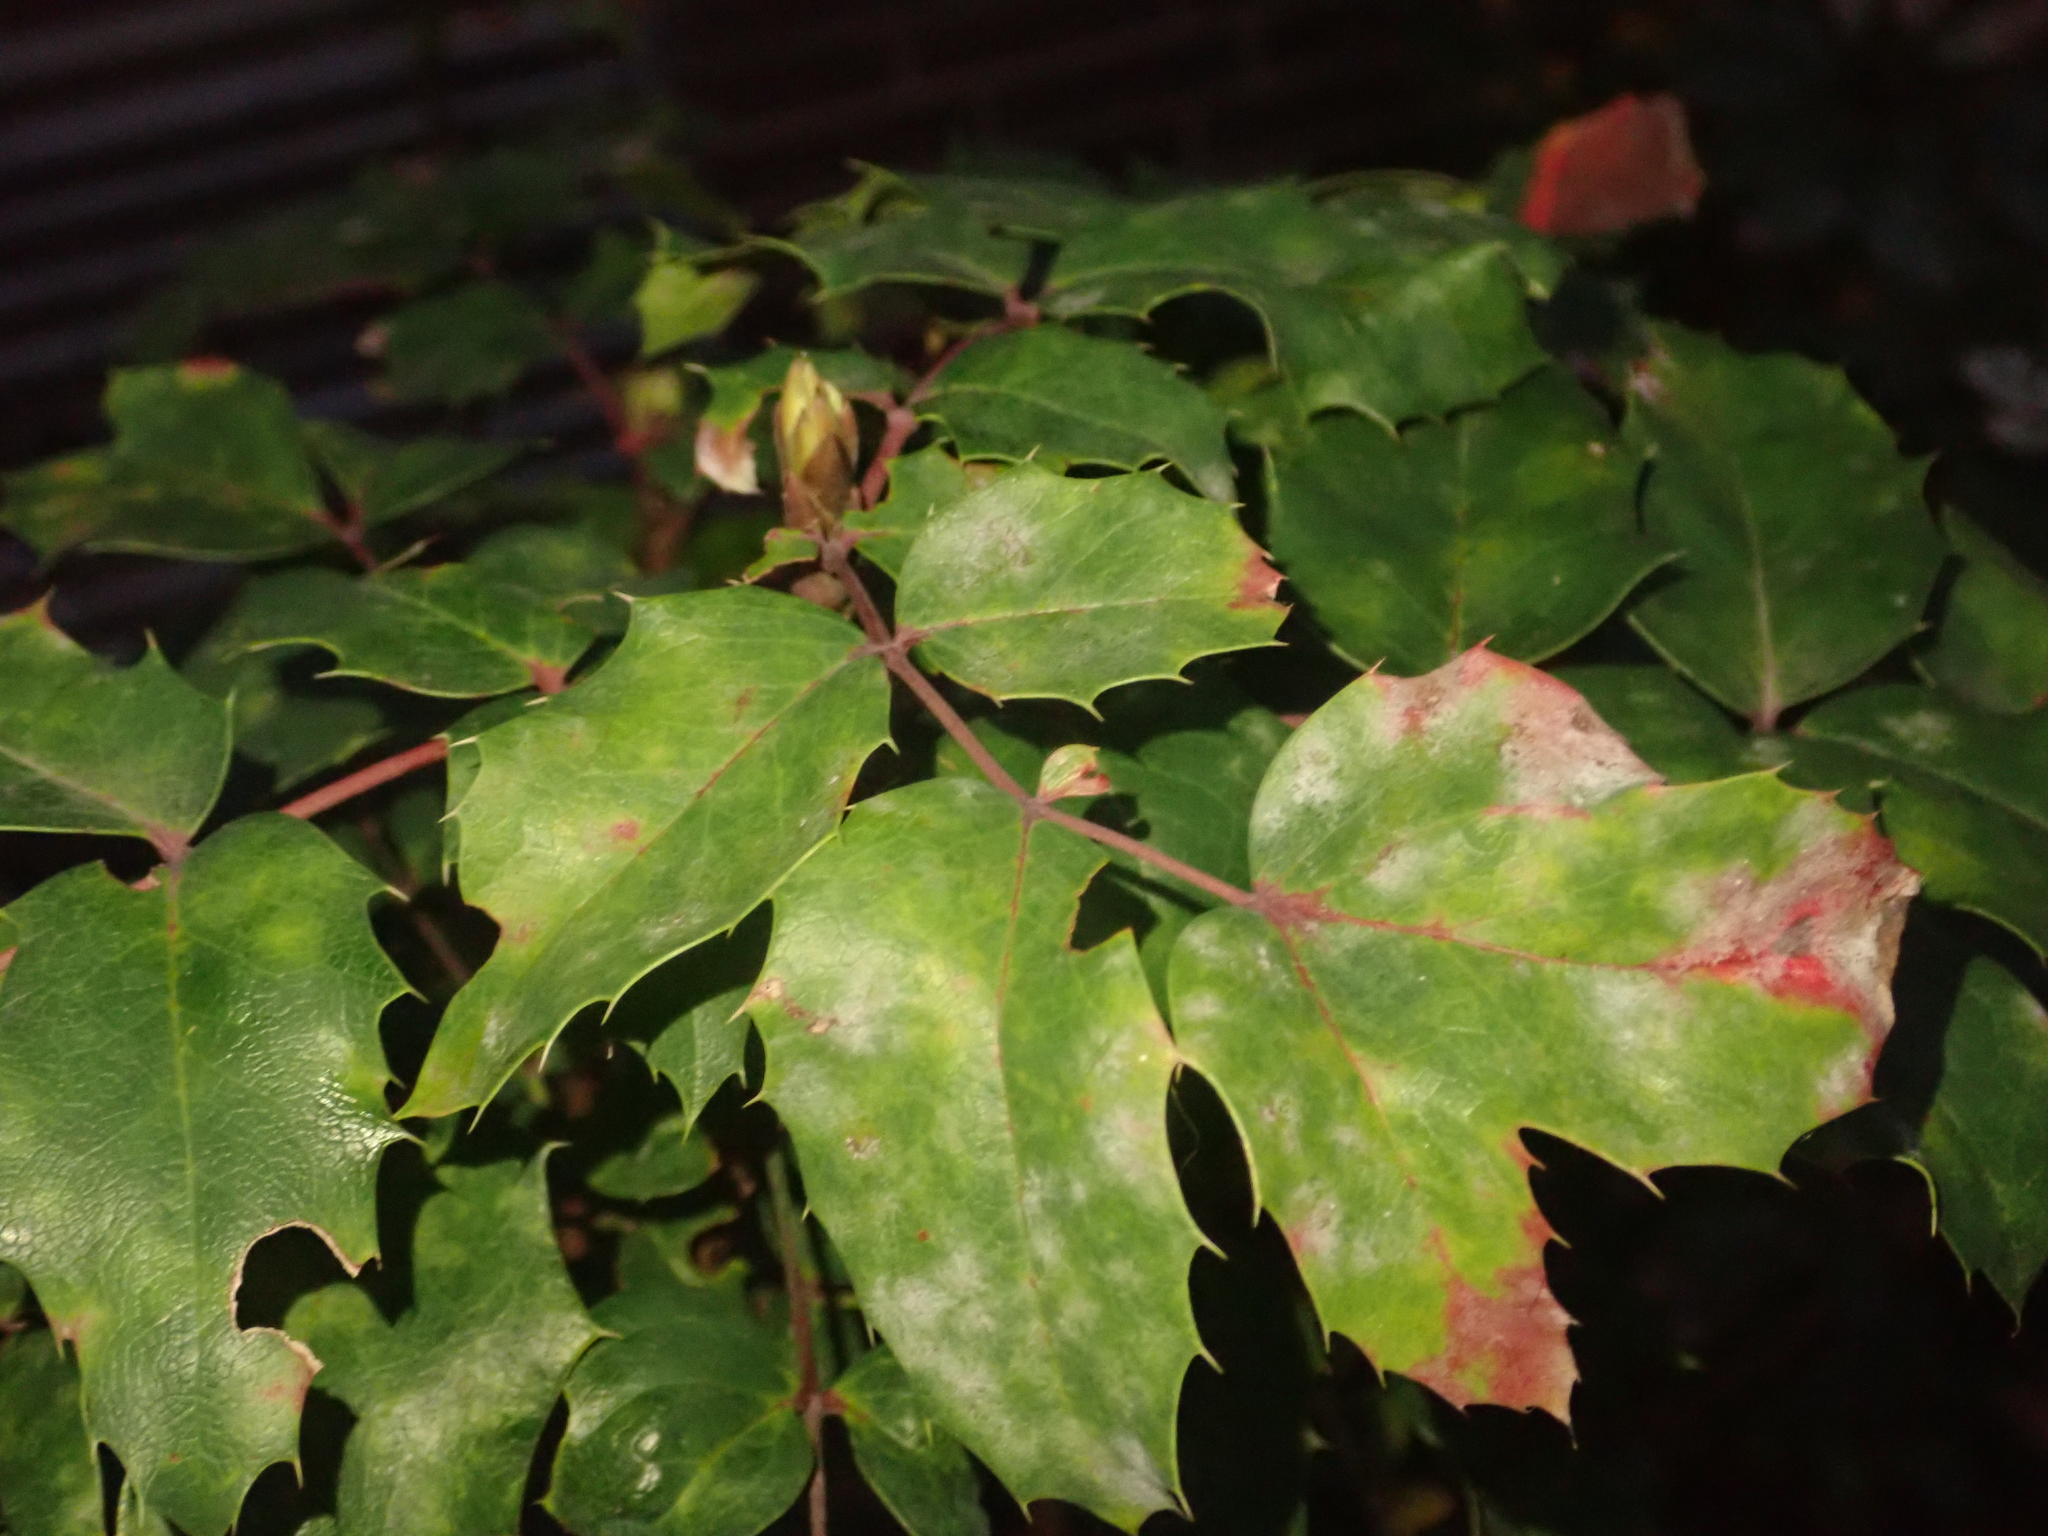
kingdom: Plantae
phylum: Tracheophyta
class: Magnoliopsida
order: Ranunculales
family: Berberidaceae
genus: Mahonia
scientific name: Mahonia aquifolium
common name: Oregon-grape
